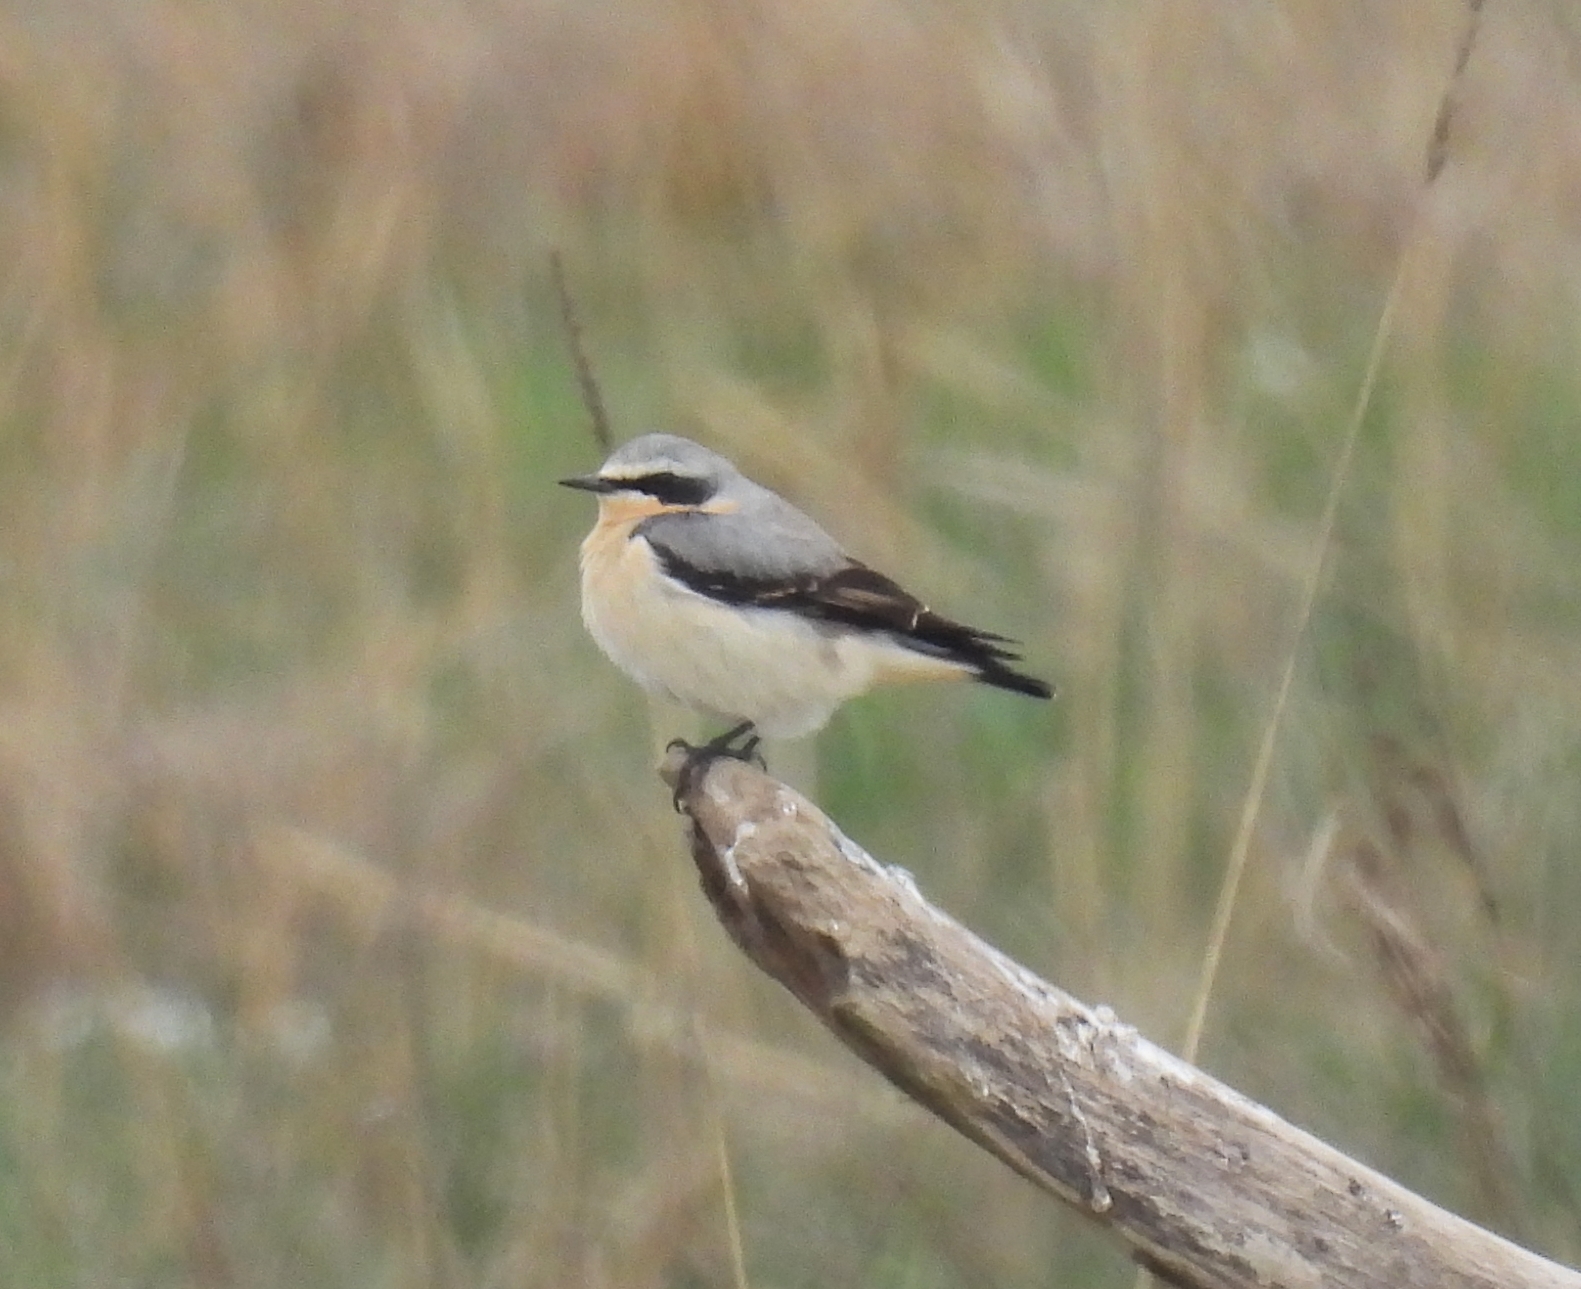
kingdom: Animalia
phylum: Chordata
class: Aves
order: Passeriformes
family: Muscicapidae
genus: Oenanthe
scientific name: Oenanthe oenanthe
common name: Northern wheatear
